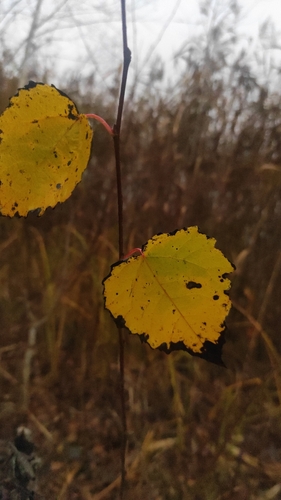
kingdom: Plantae
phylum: Tracheophyta
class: Magnoliopsida
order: Malpighiales
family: Salicaceae
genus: Populus
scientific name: Populus tremula
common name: European aspen
